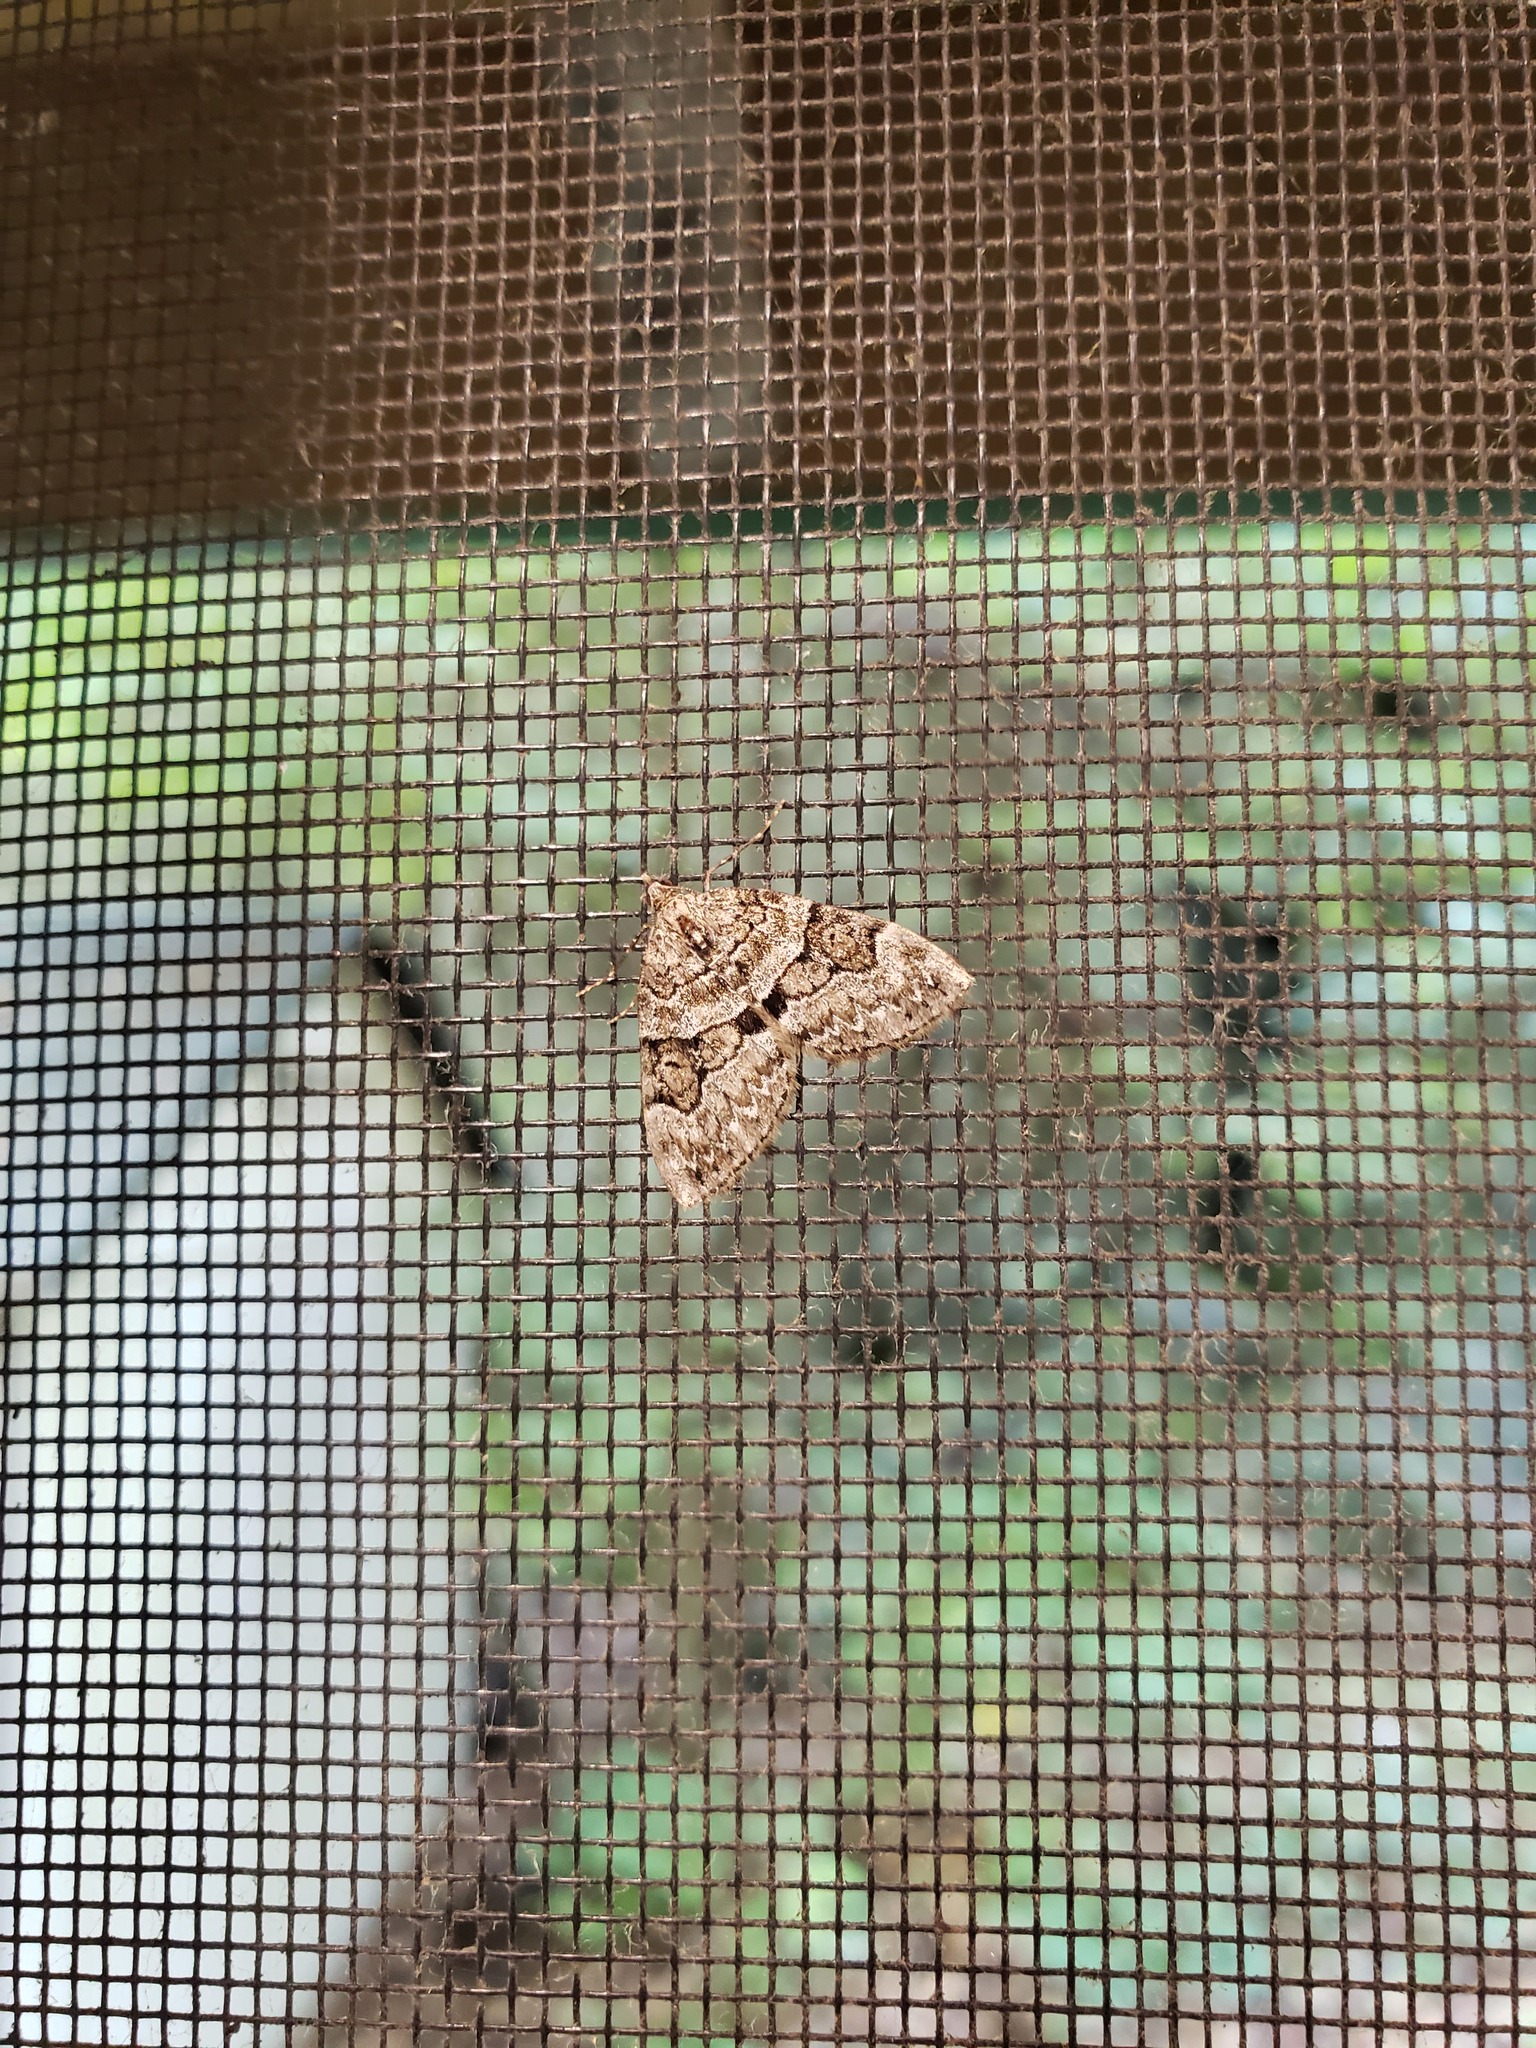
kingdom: Animalia
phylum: Arthropoda
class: Insecta
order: Lepidoptera
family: Geometridae
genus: Thera
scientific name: Thera contractata
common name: Contracted spanworm
